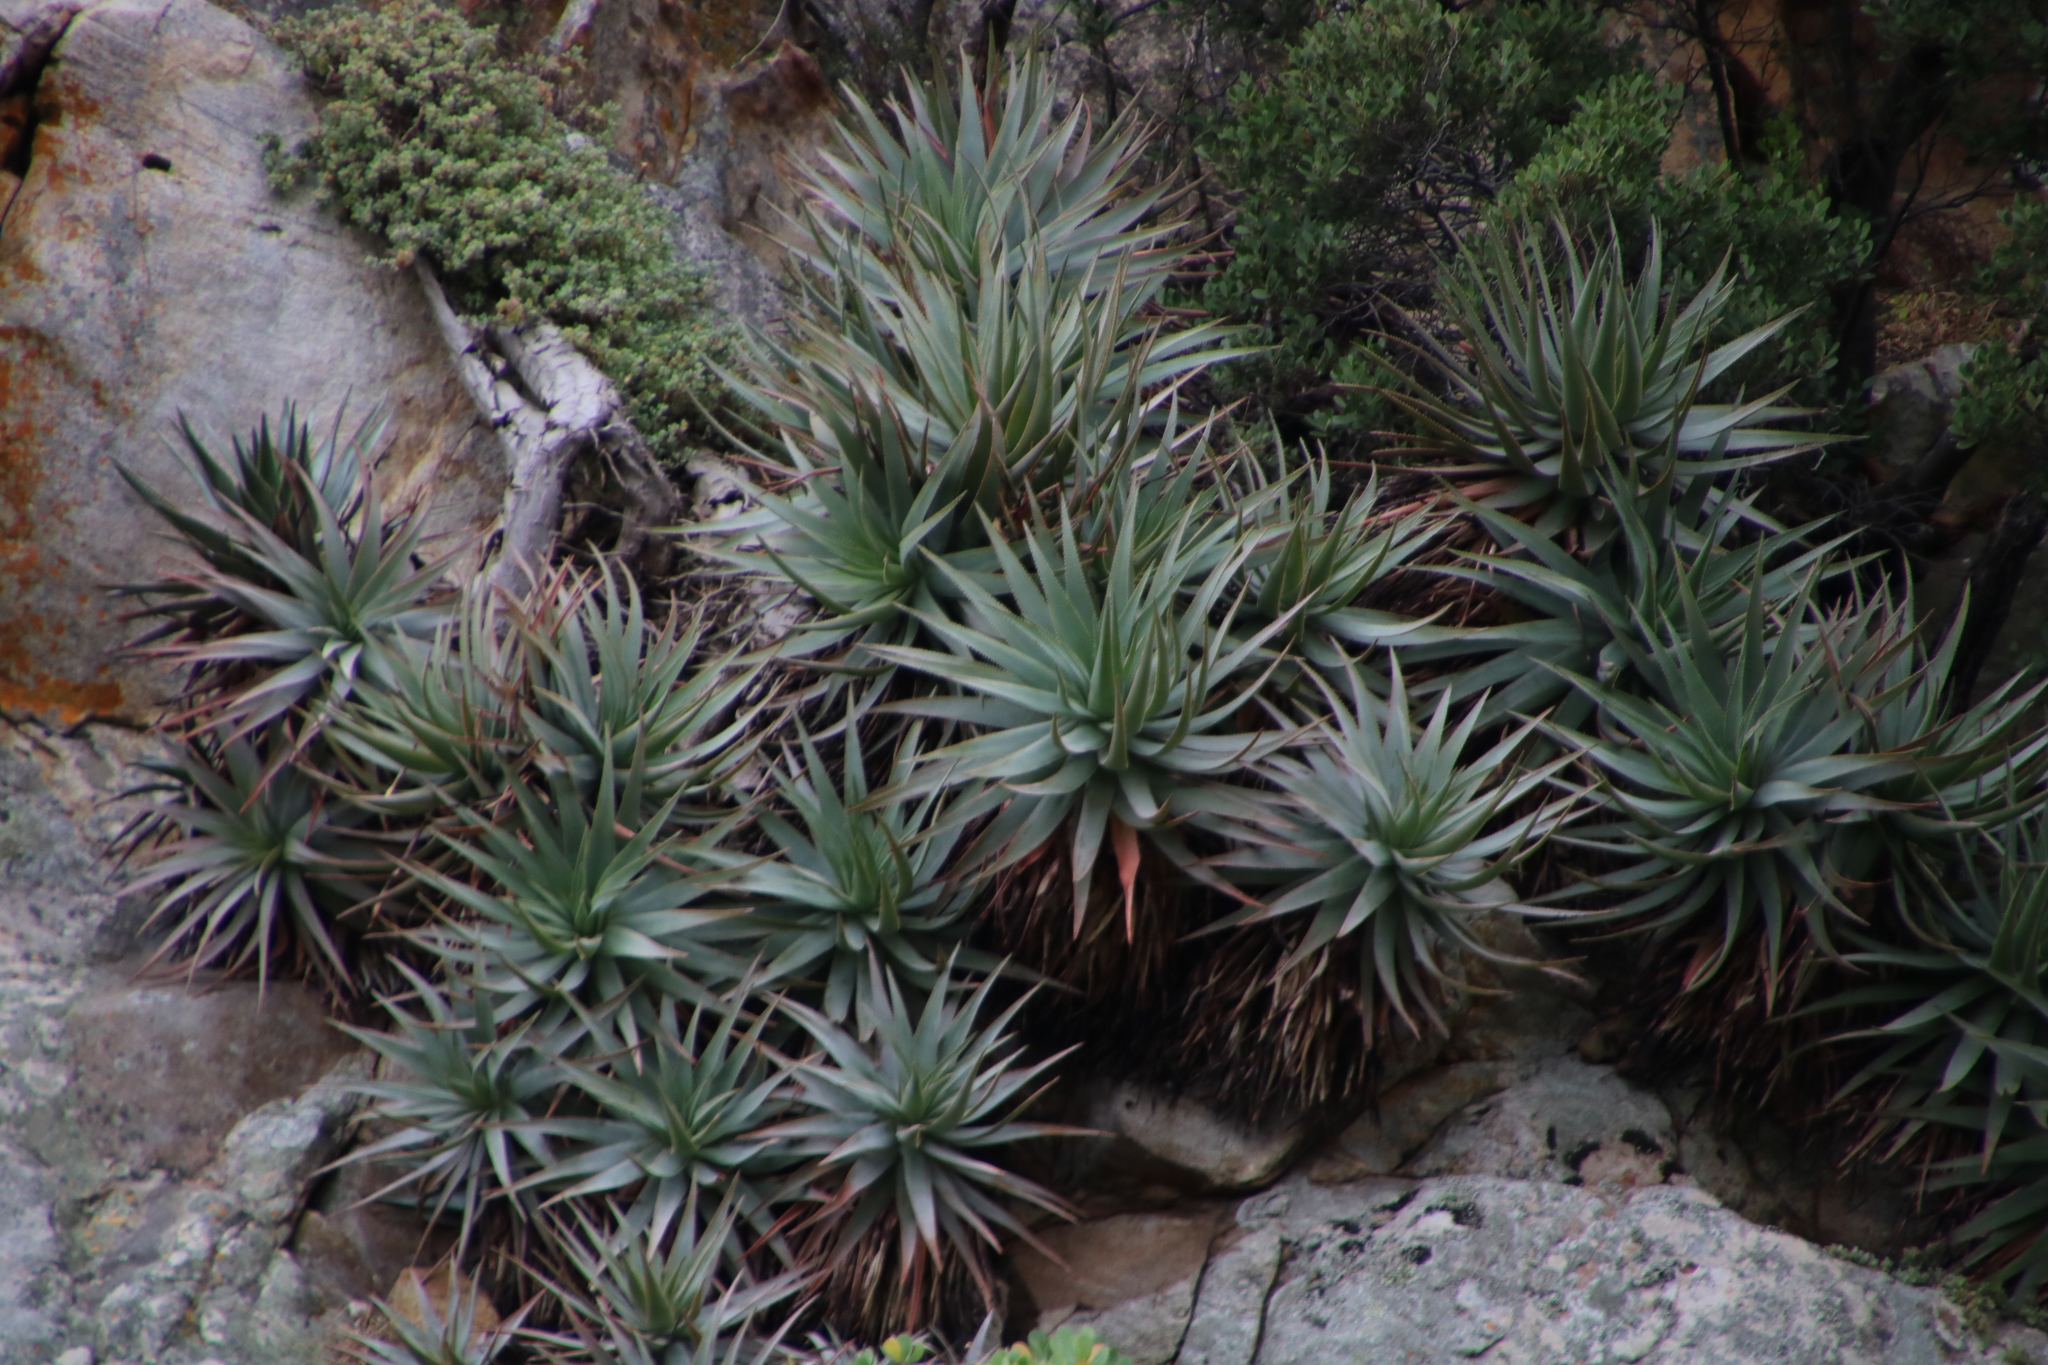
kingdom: Plantae
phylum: Tracheophyta
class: Liliopsida
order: Asparagales
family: Asphodelaceae
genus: Aloe
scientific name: Aloe succotrina
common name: Bombay aloe
